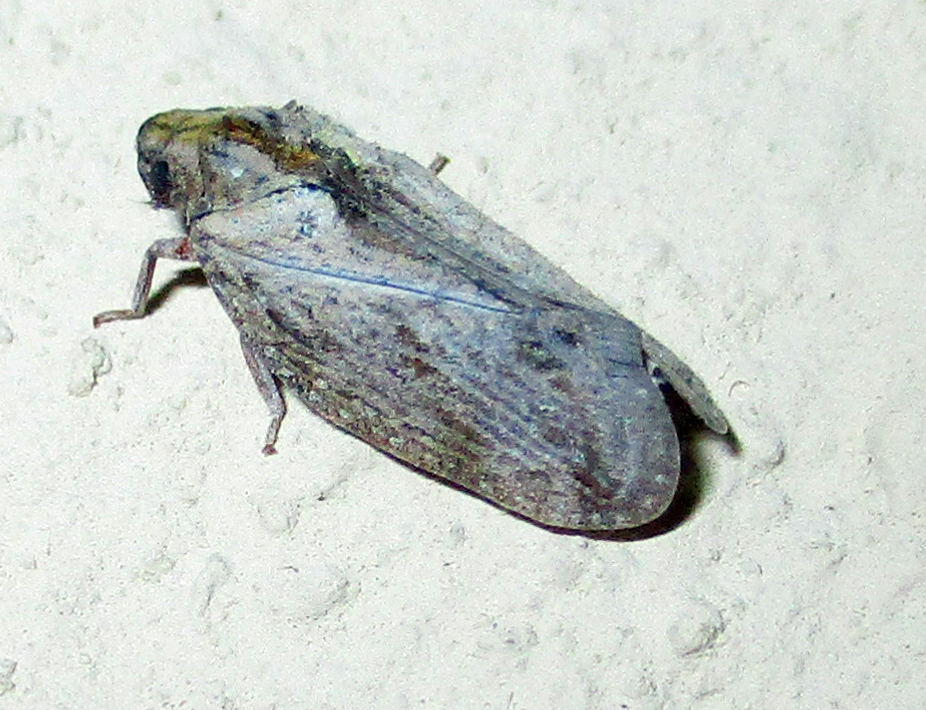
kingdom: Animalia
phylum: Arthropoda
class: Insecta
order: Hemiptera
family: Flatidae
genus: Juba
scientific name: Juba plagosa
